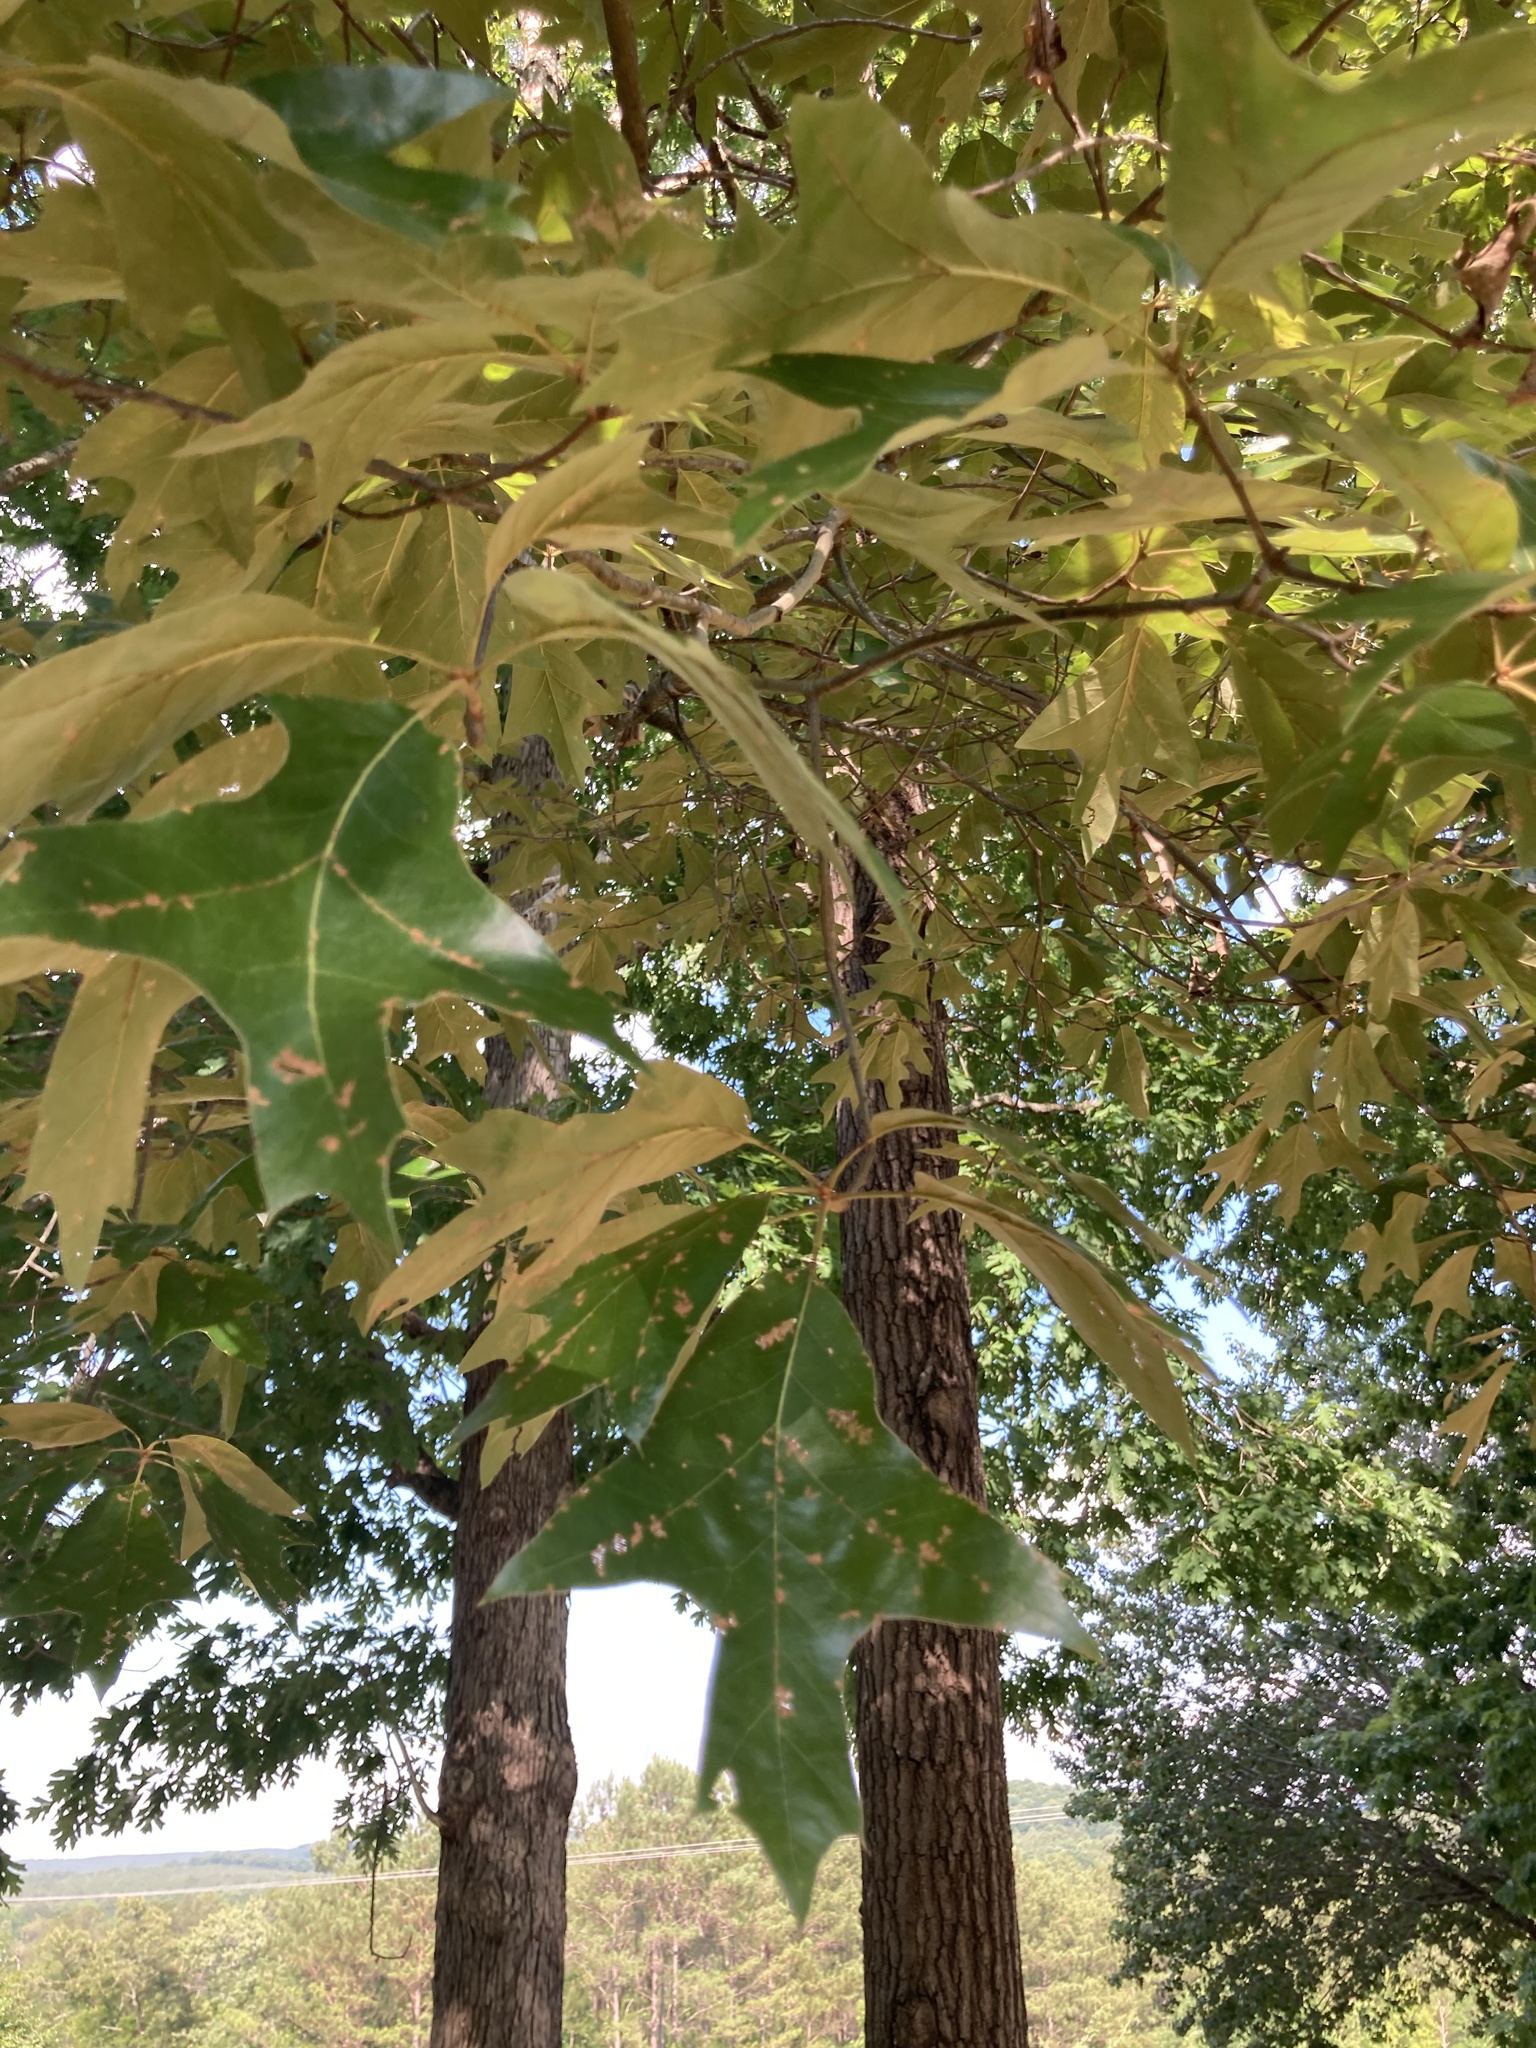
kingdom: Plantae
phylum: Tracheophyta
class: Magnoliopsida
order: Fagales
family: Fagaceae
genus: Quercus
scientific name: Quercus falcata
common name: Southern red oak
